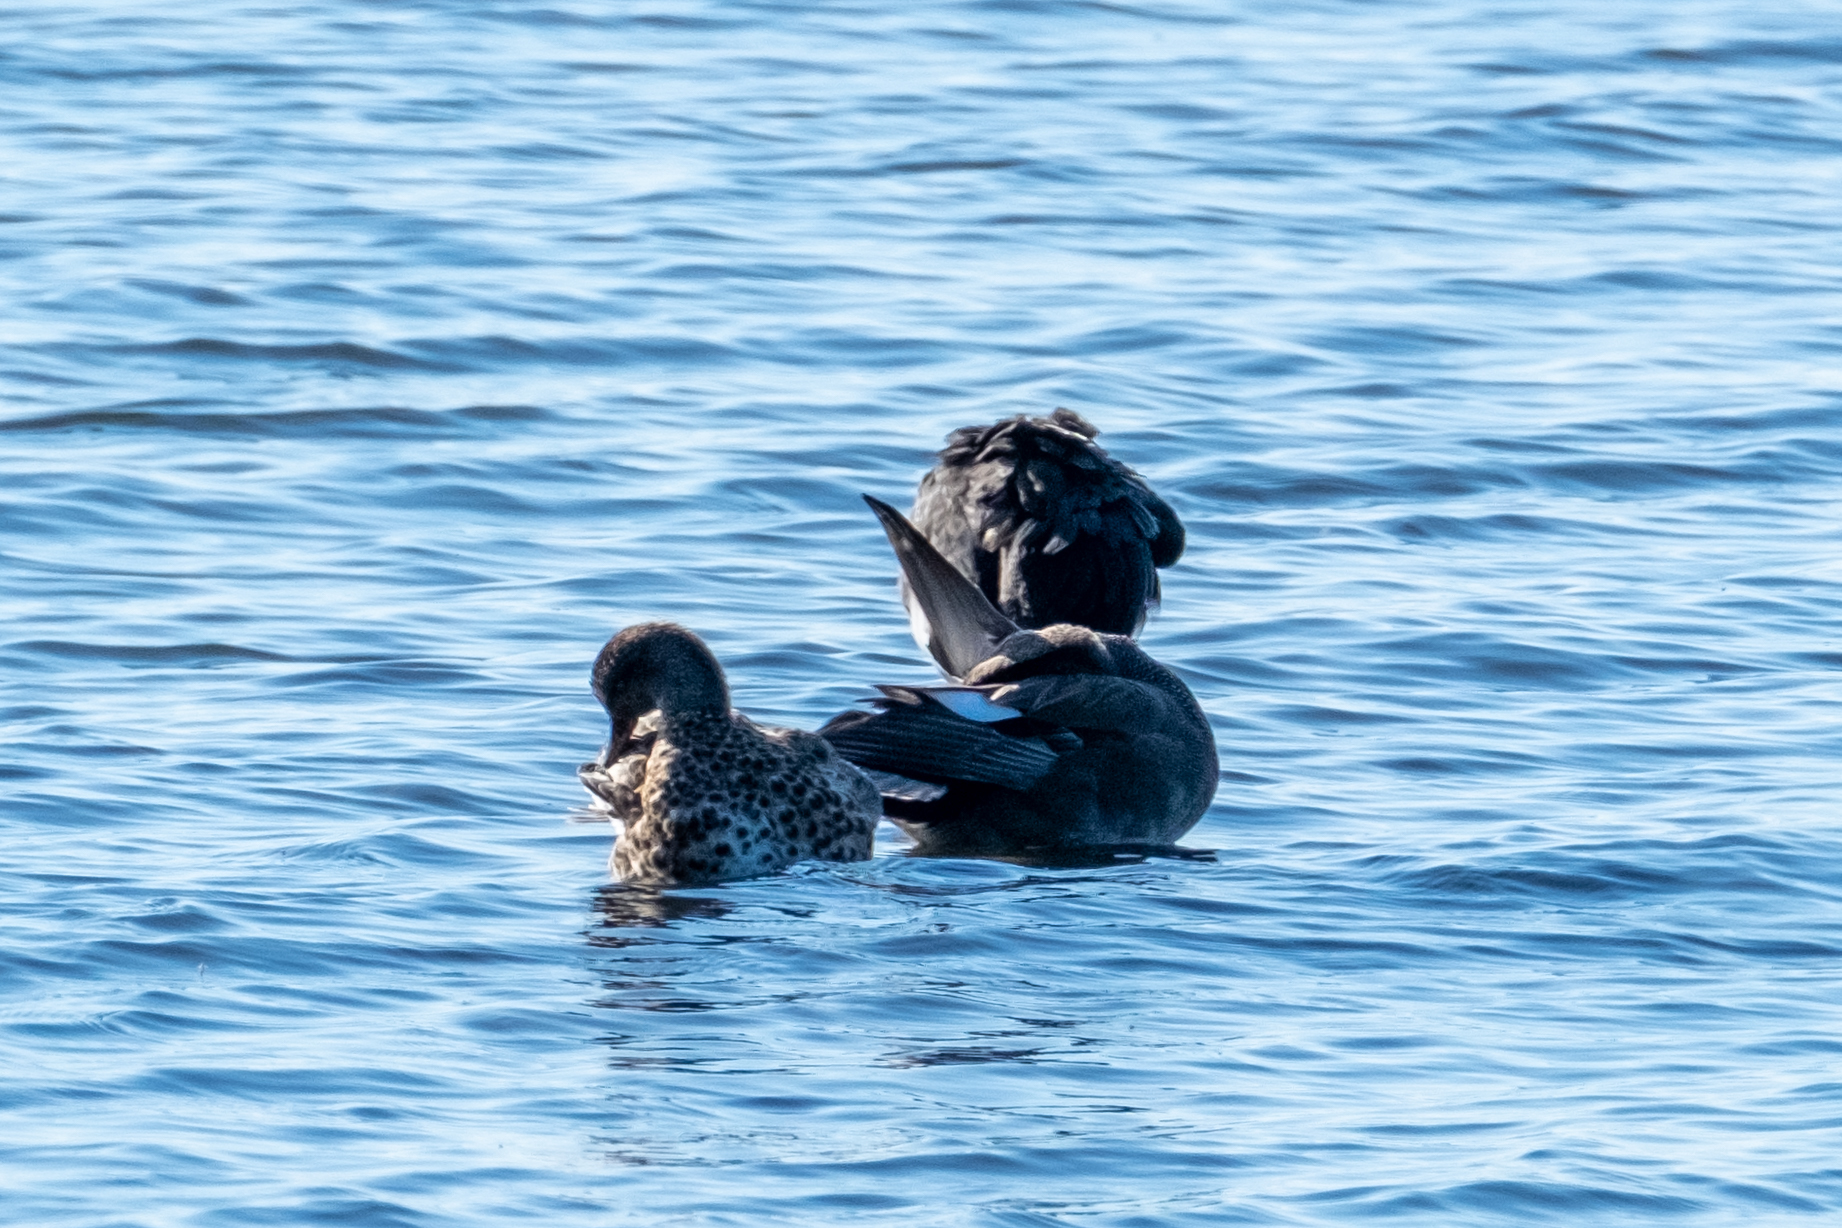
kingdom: Animalia
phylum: Chordata
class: Aves
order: Anseriformes
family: Anatidae
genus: Mareca
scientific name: Mareca strepera
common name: Gadwall
